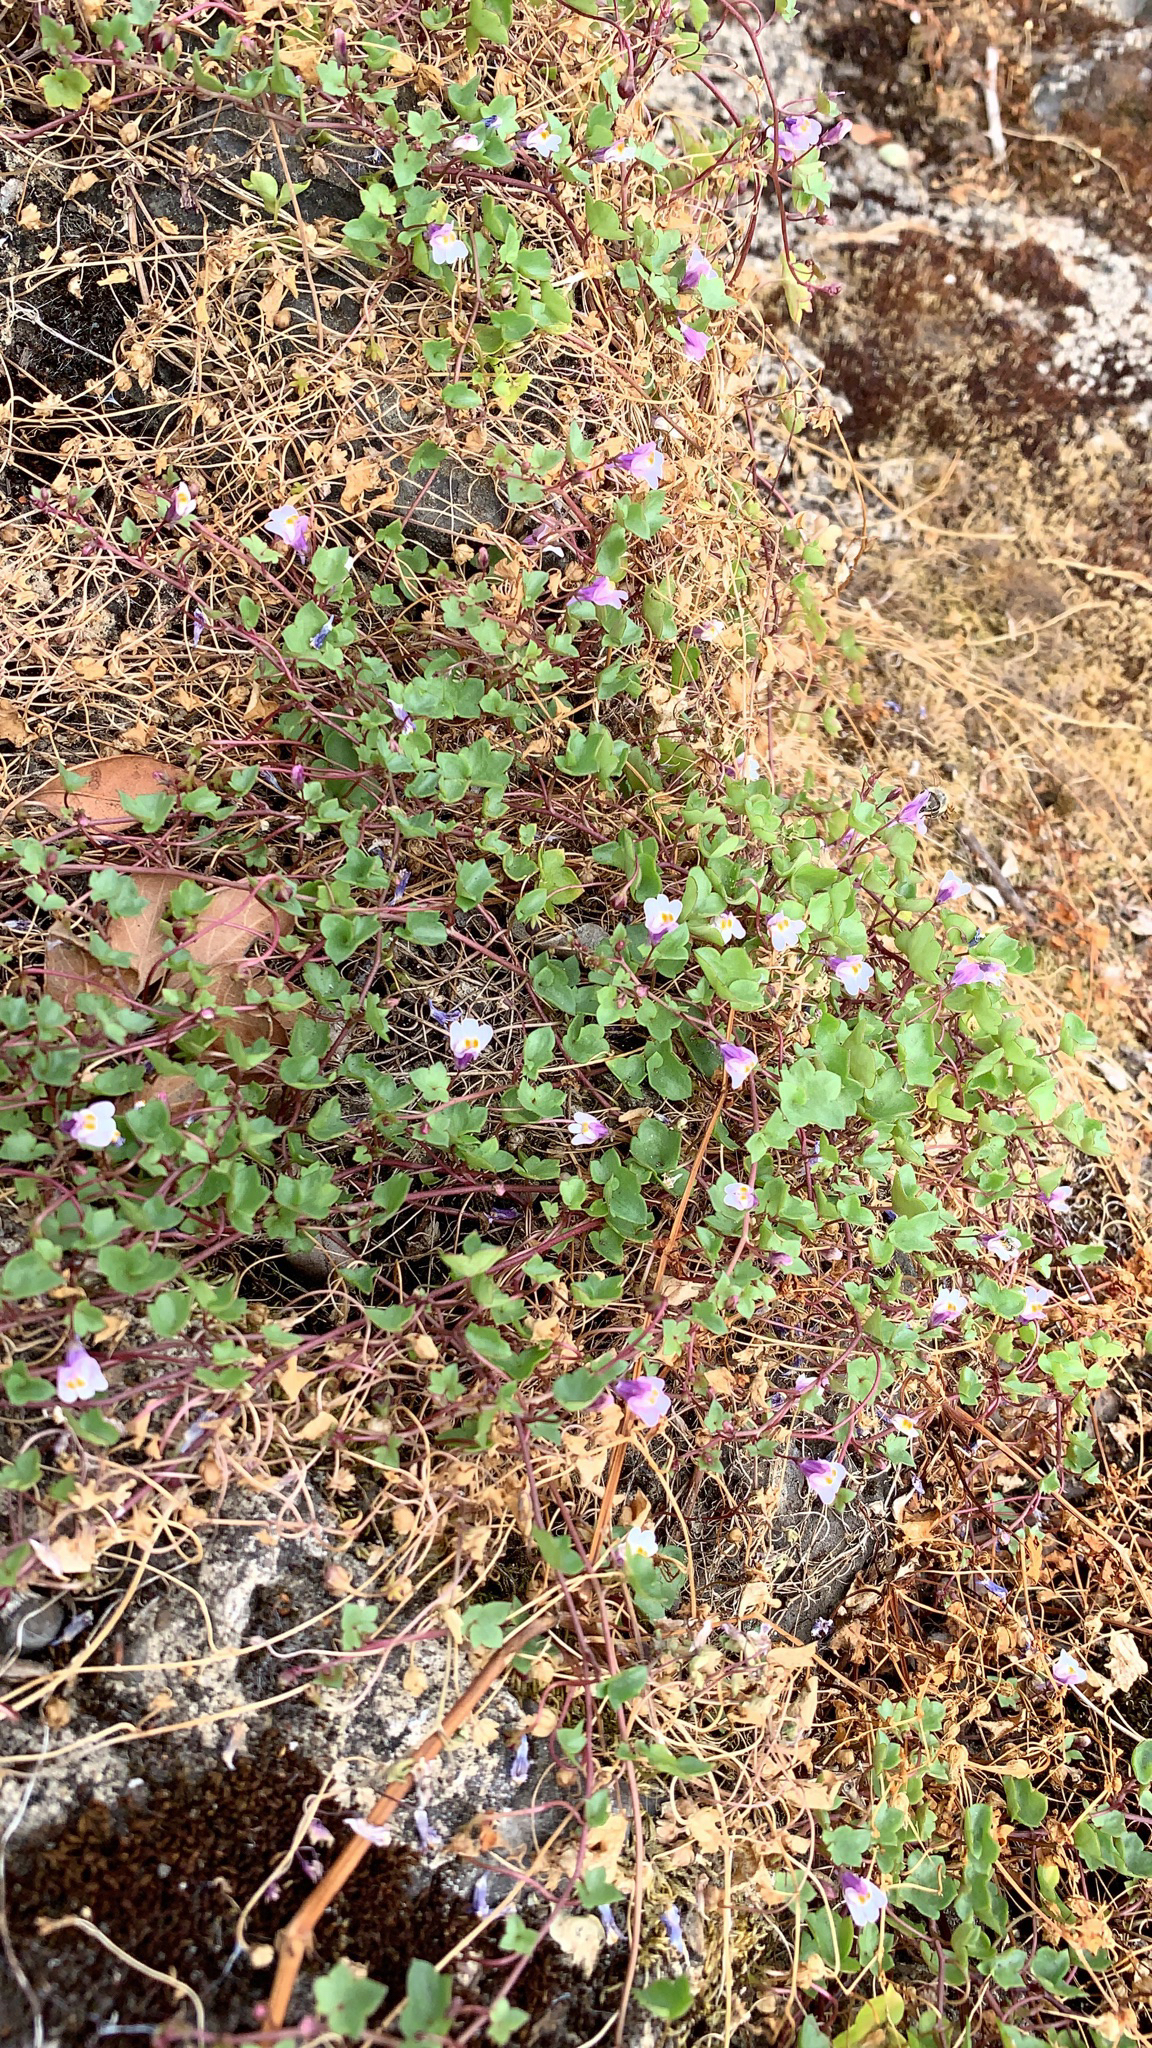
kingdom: Plantae
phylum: Tracheophyta
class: Magnoliopsida
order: Lamiales
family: Plantaginaceae
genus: Cymbalaria
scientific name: Cymbalaria muralis
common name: Ivy-leaved toadflax
